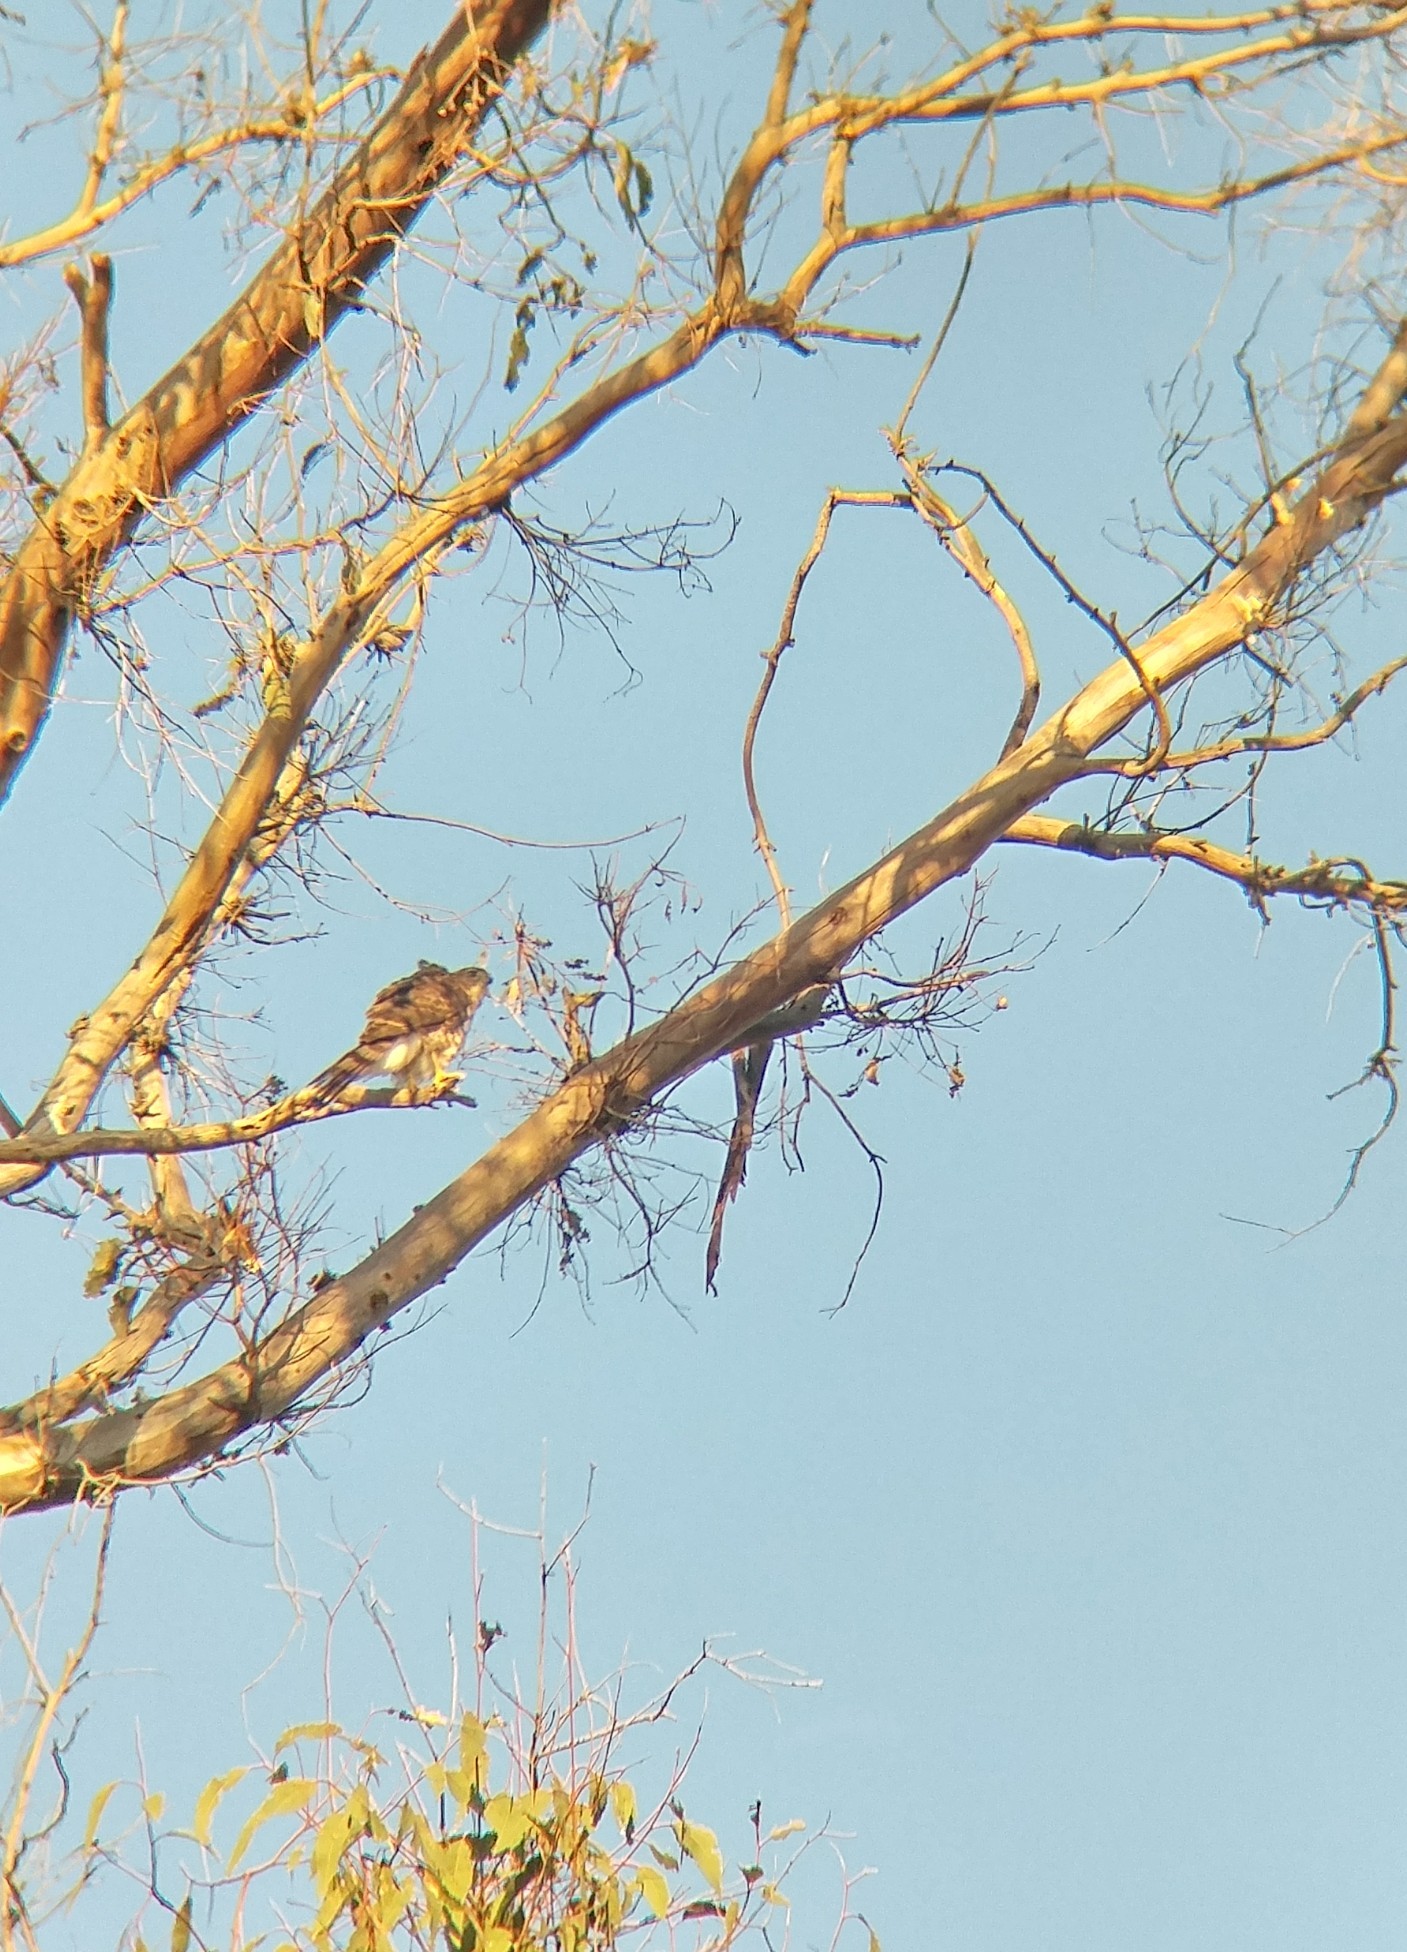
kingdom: Animalia
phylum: Chordata
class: Aves
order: Accipitriformes
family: Accipitridae
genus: Accipiter
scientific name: Accipiter cooperii
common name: Cooper's hawk
